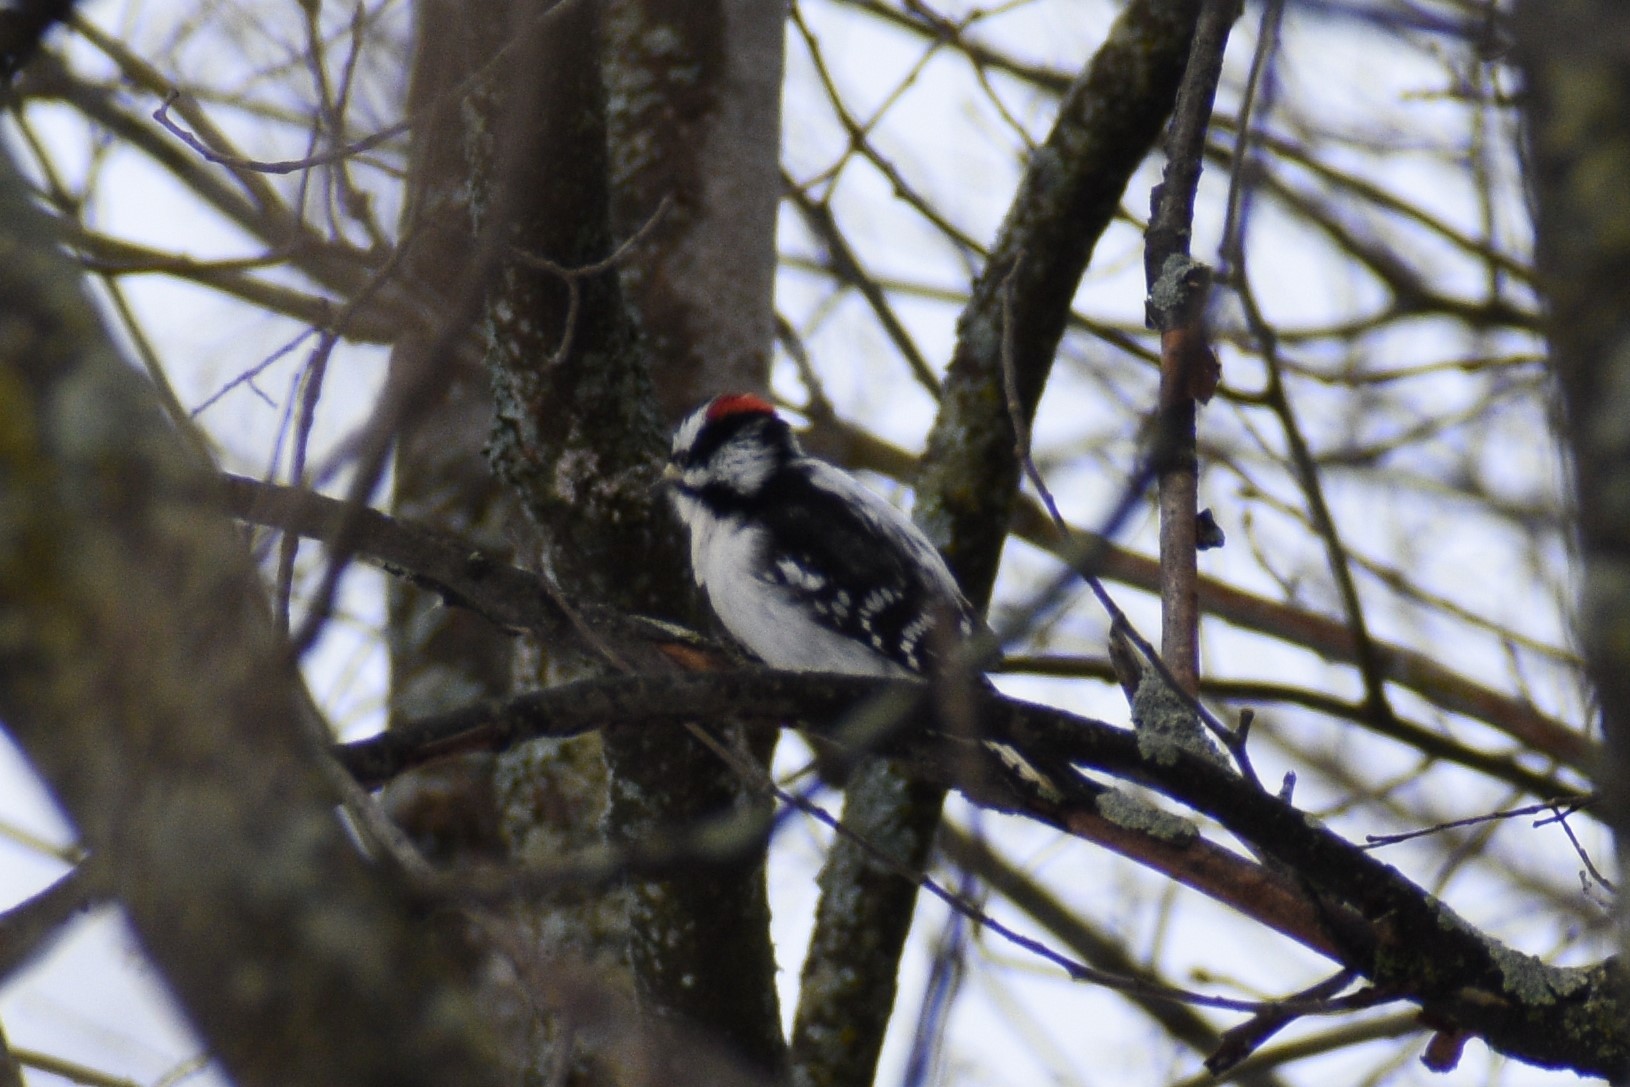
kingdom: Animalia
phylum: Chordata
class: Aves
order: Piciformes
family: Picidae
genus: Dryobates
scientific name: Dryobates pubescens
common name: Downy woodpecker
